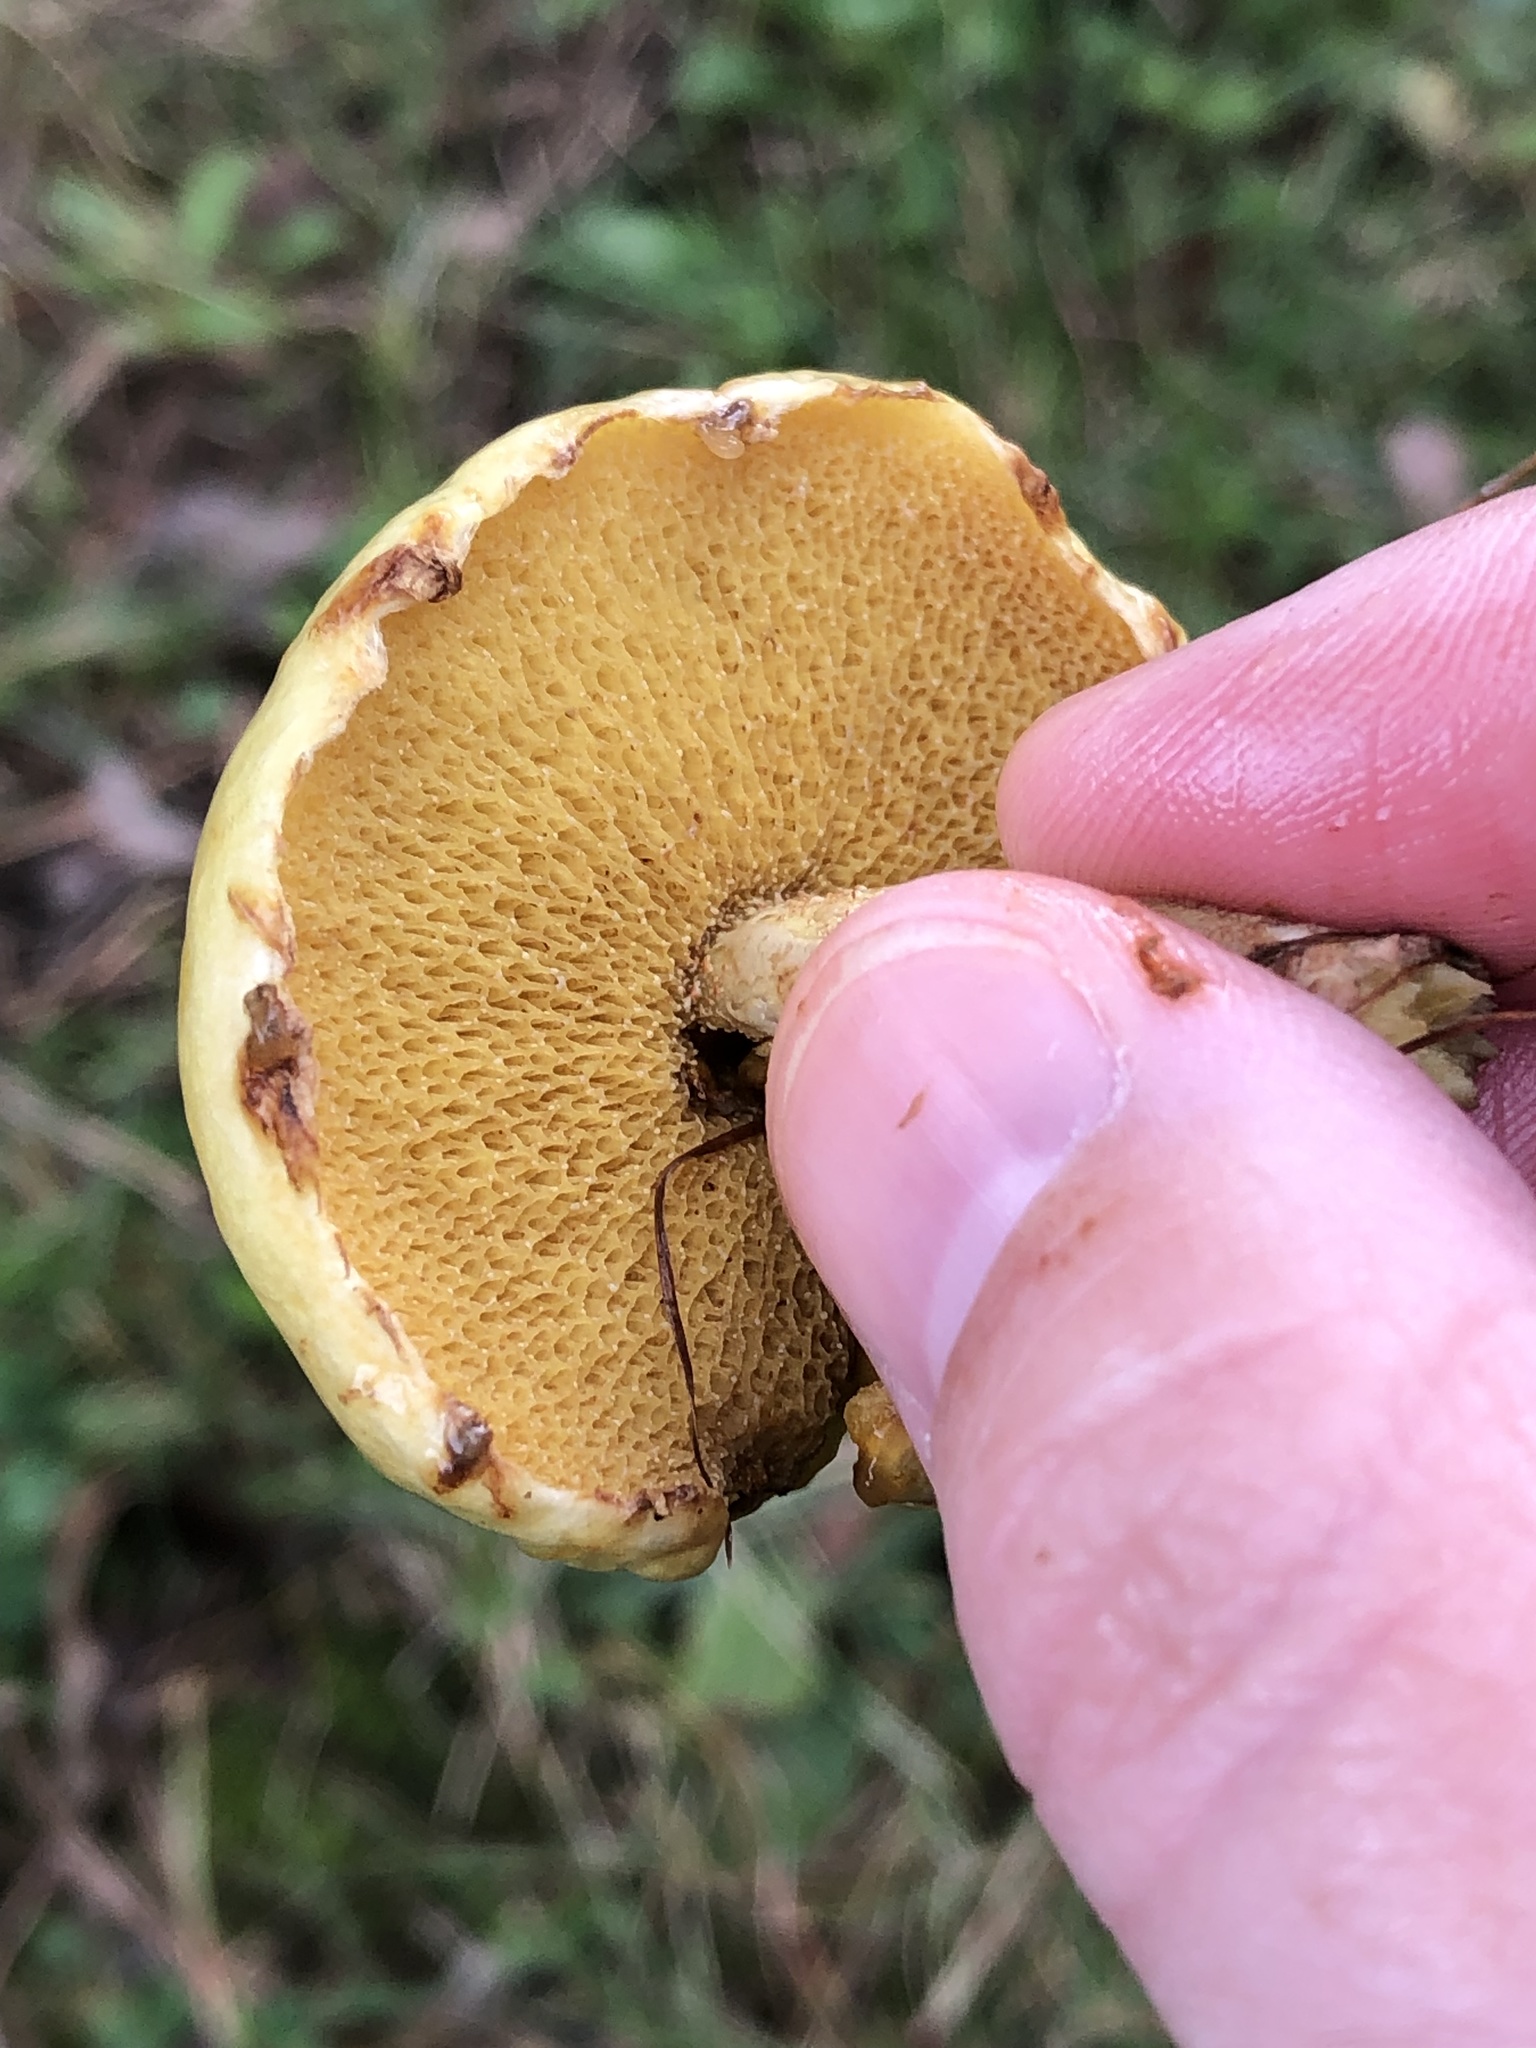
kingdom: Fungi
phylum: Basidiomycota
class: Agaricomycetes
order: Boletales
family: Suillaceae
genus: Suillus
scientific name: Suillus americanus
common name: Chicken fat mushroom
